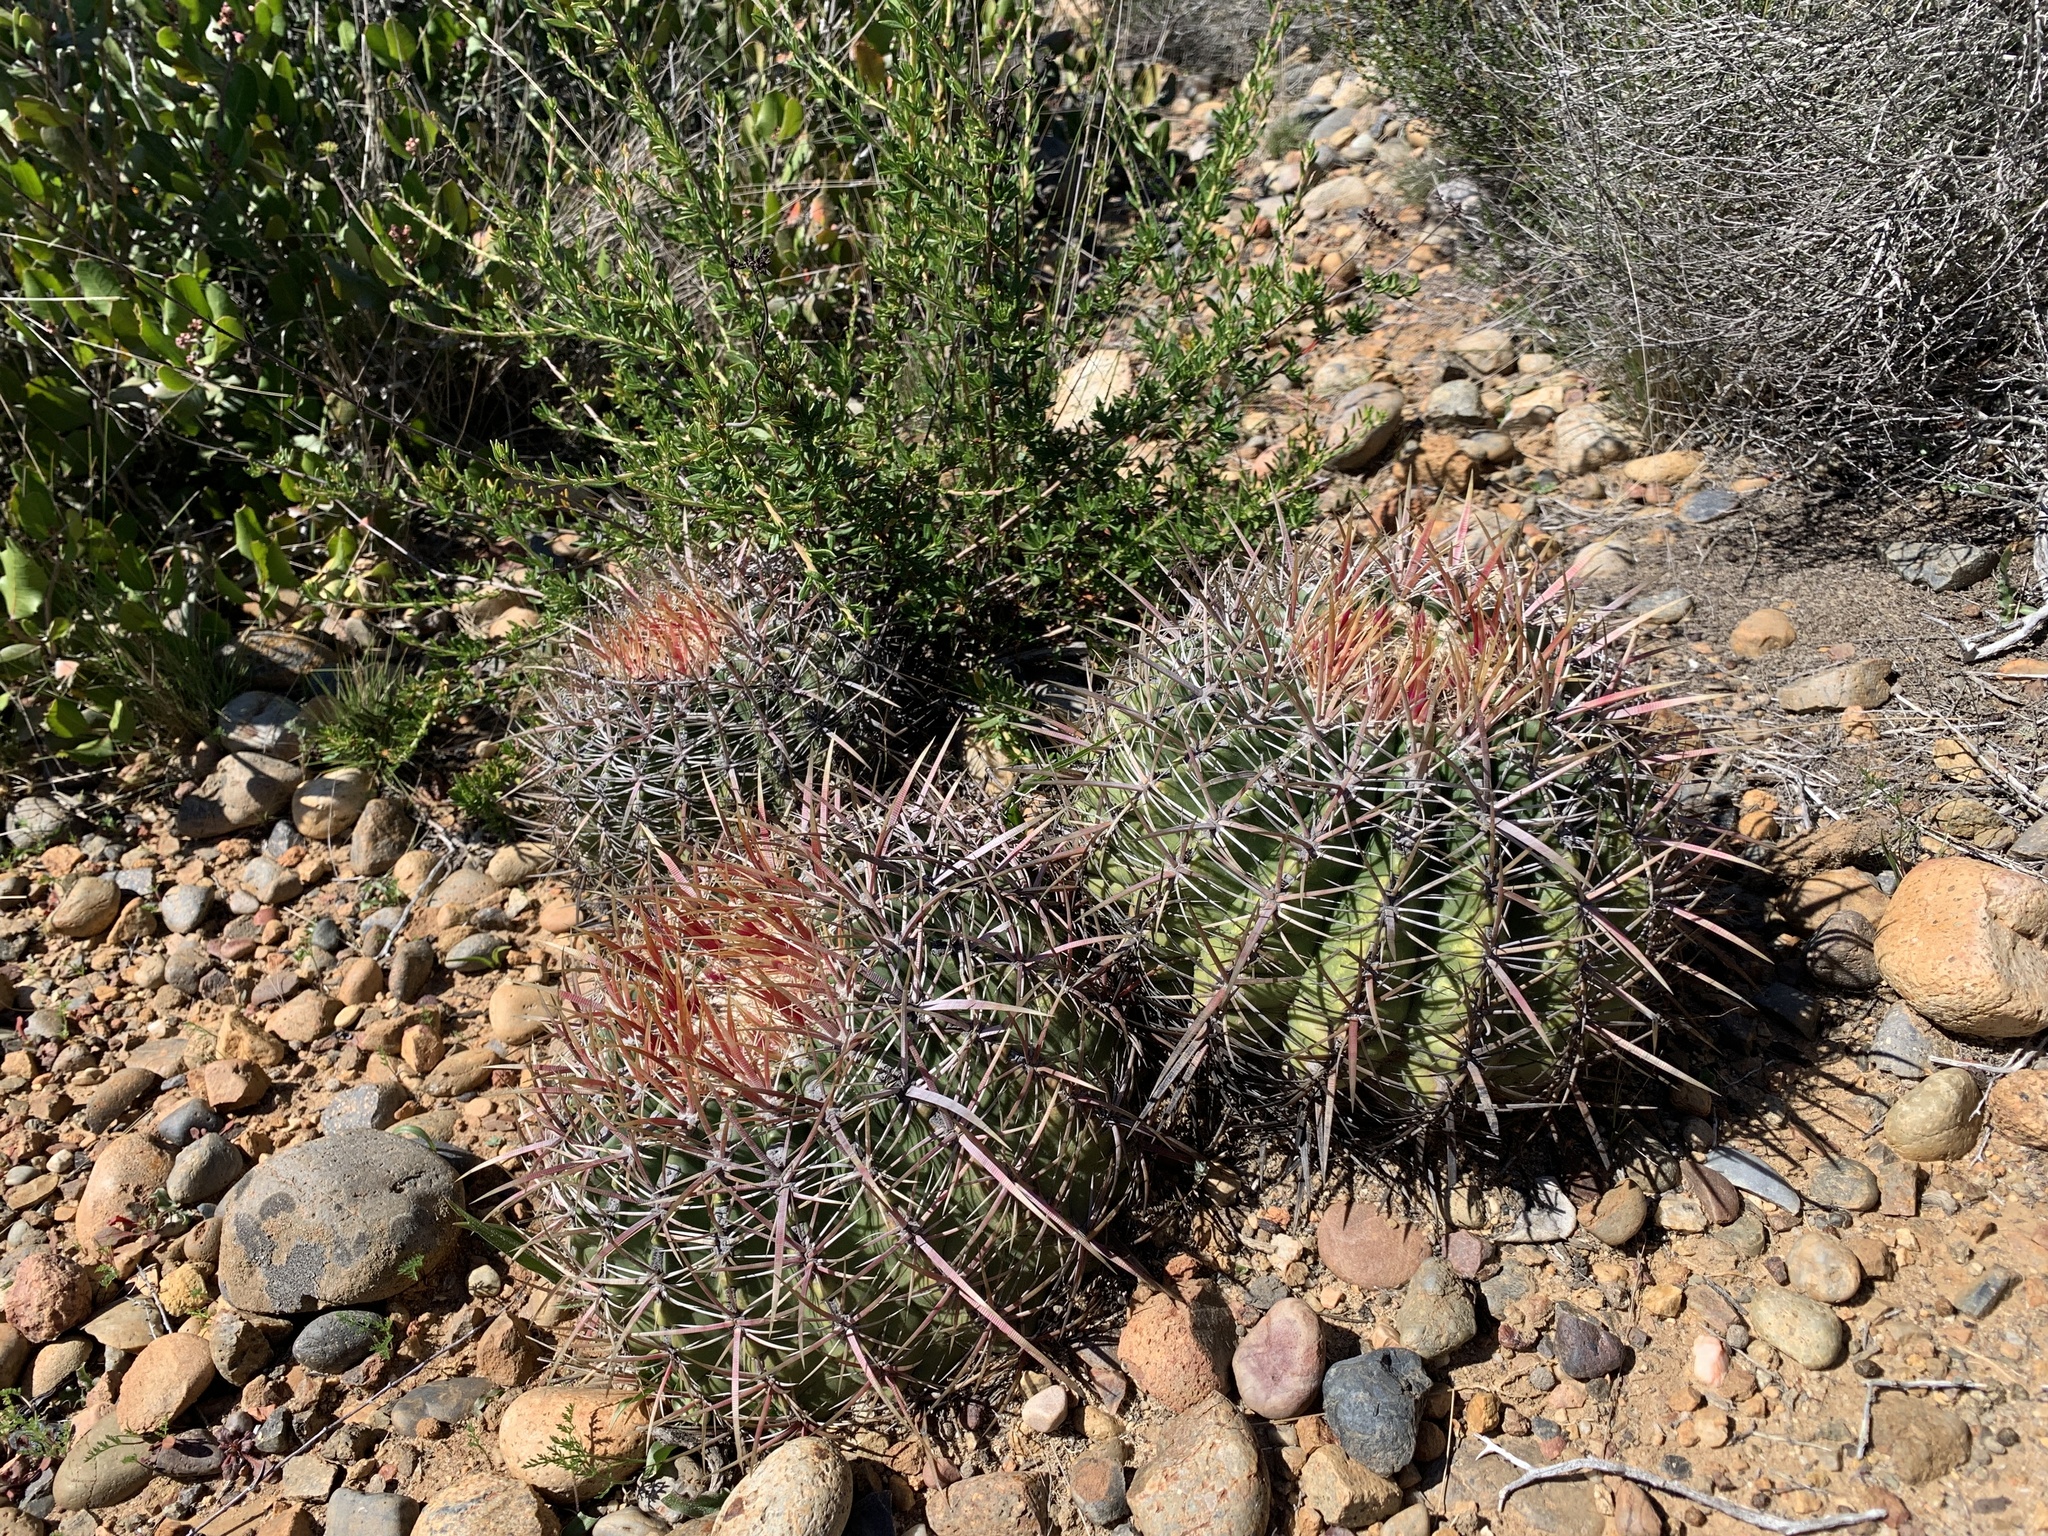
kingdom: Plantae
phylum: Tracheophyta
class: Magnoliopsida
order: Caryophyllales
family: Cactaceae
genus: Ferocactus
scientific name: Ferocactus viridescens
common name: San diego barrel cactus
